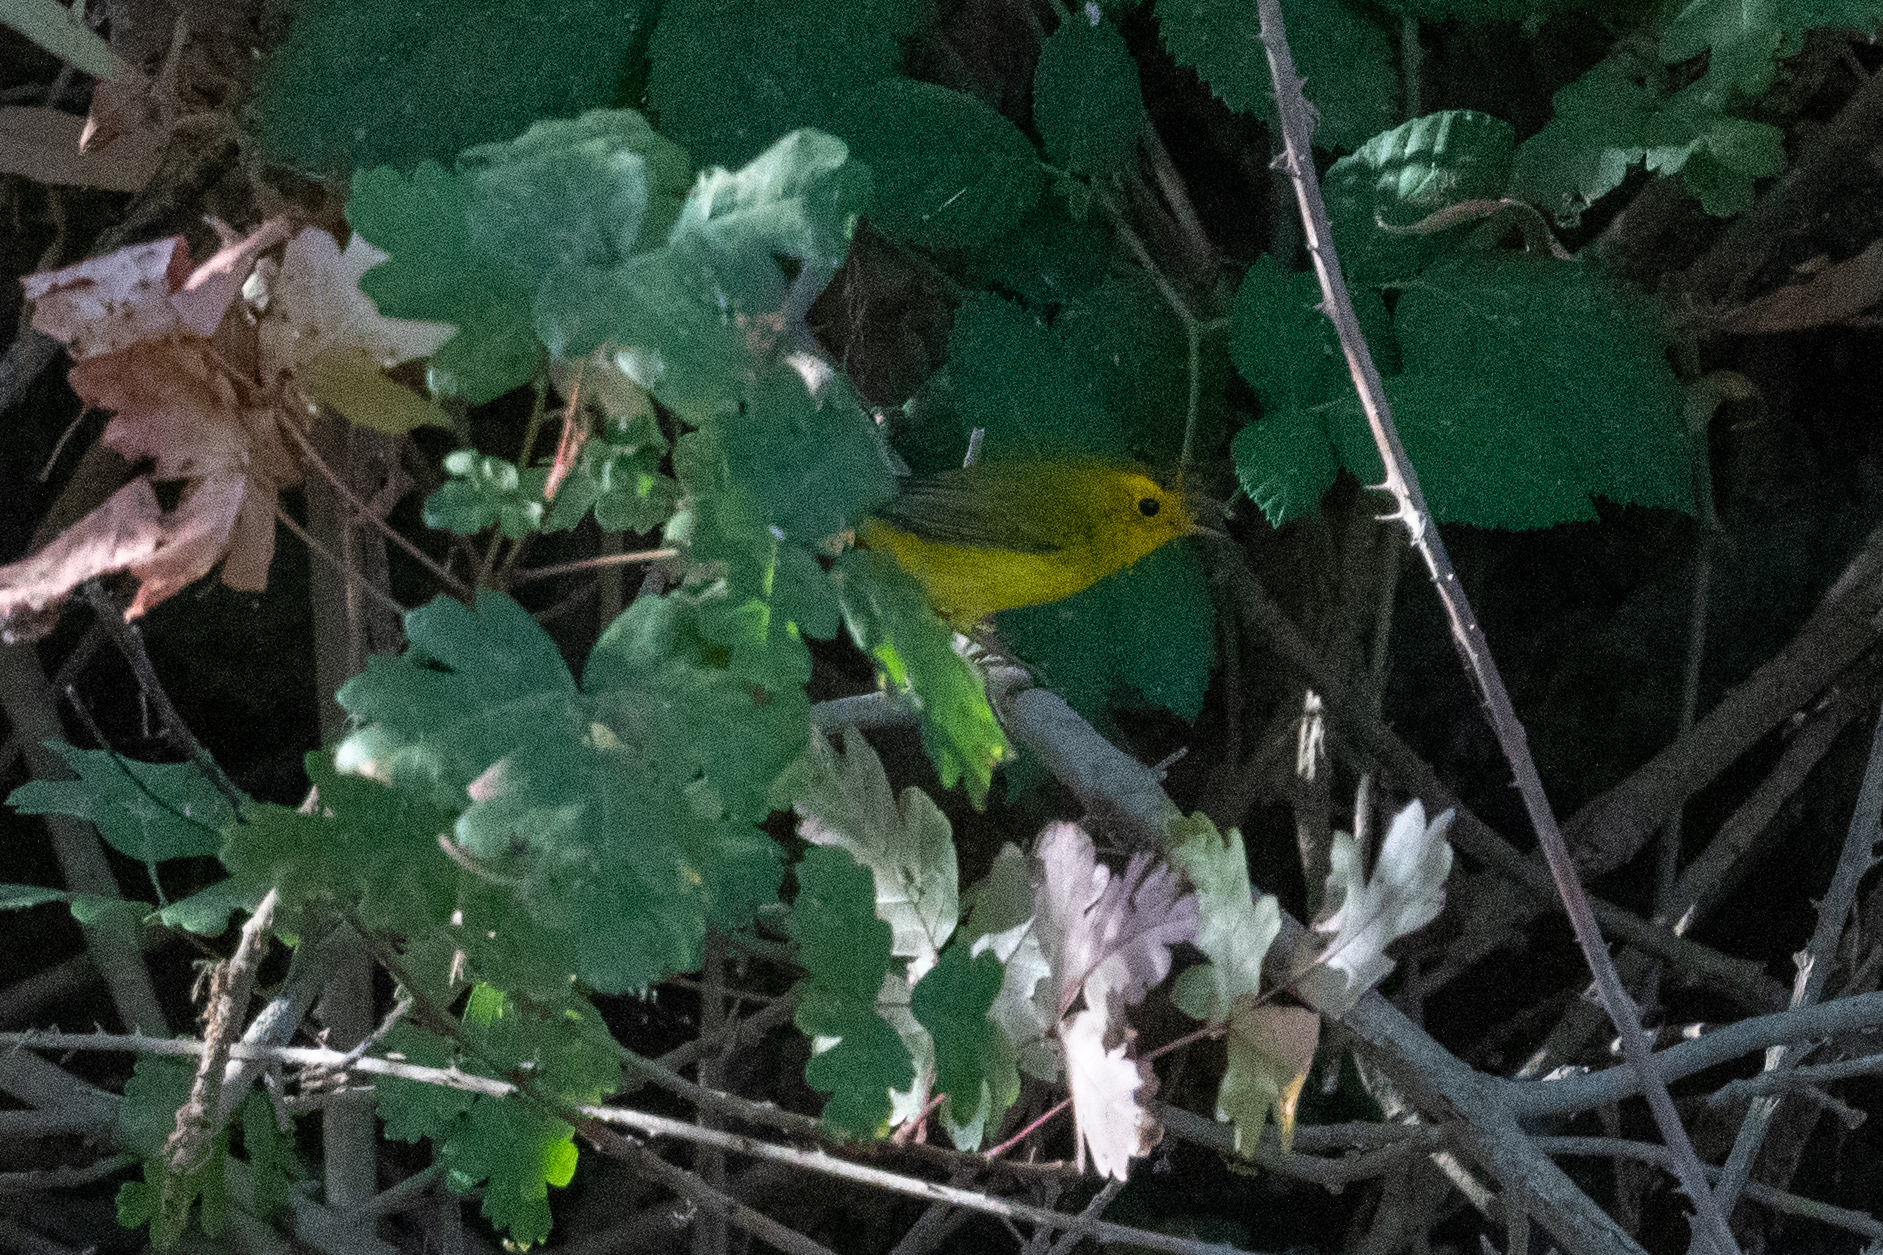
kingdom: Animalia
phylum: Chordata
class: Aves
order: Passeriformes
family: Parulidae
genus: Cardellina
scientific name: Cardellina pusilla
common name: Wilson's warbler
